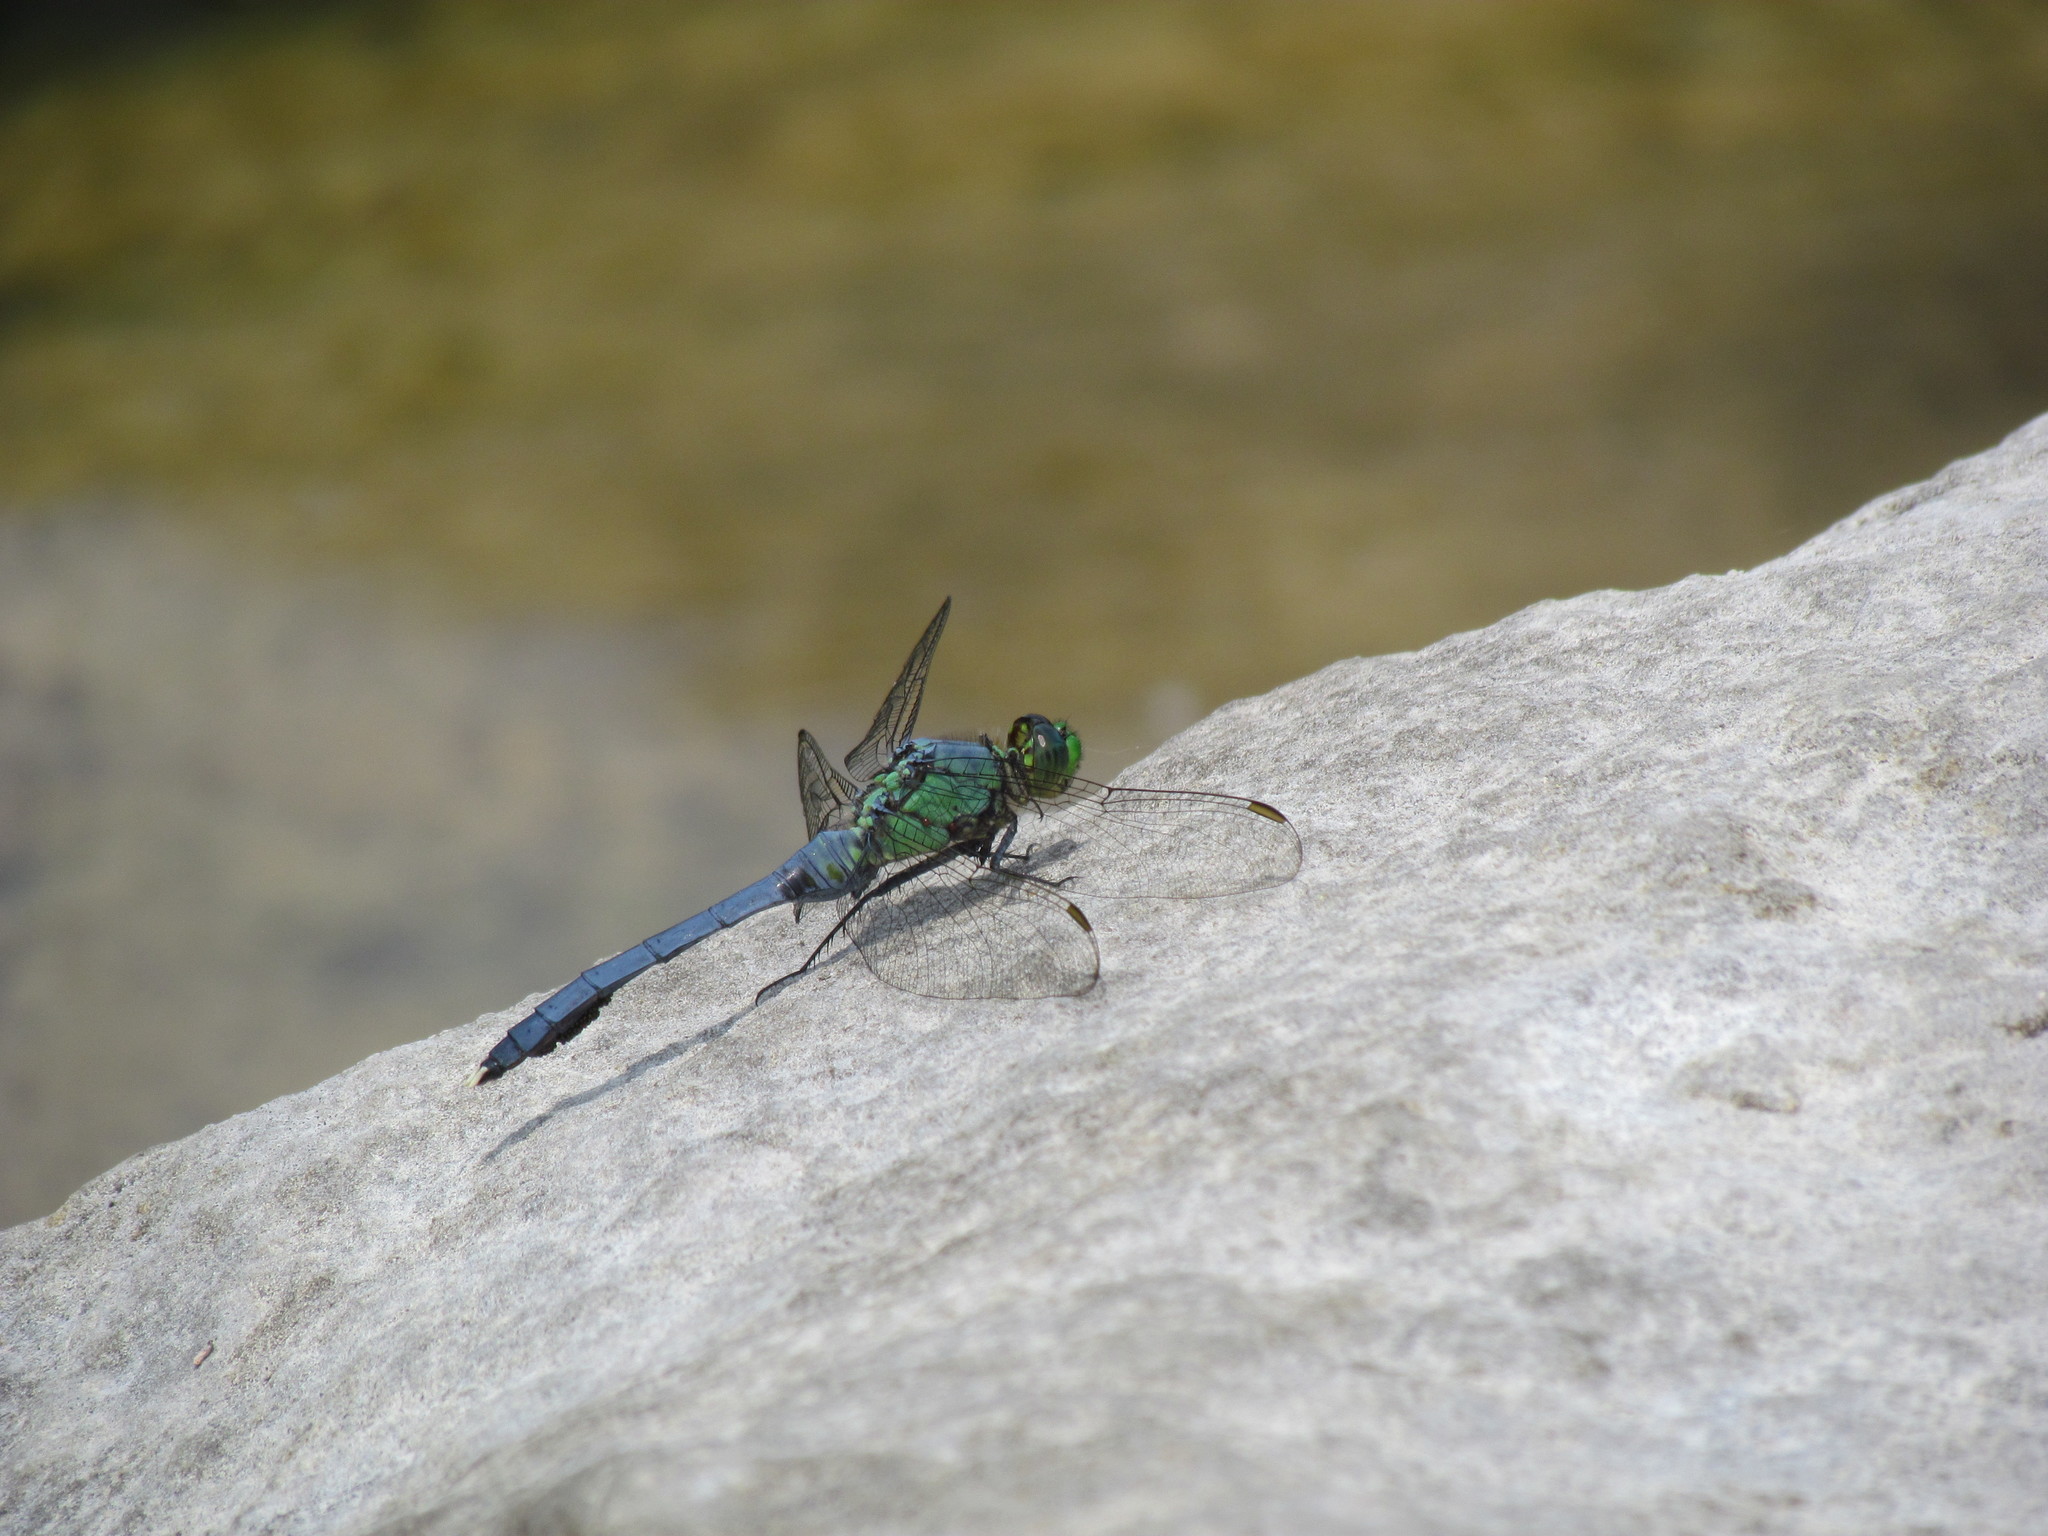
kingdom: Animalia
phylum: Arthropoda
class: Insecta
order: Odonata
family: Libellulidae
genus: Erythemis
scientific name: Erythemis simplicicollis
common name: Eastern pondhawk
